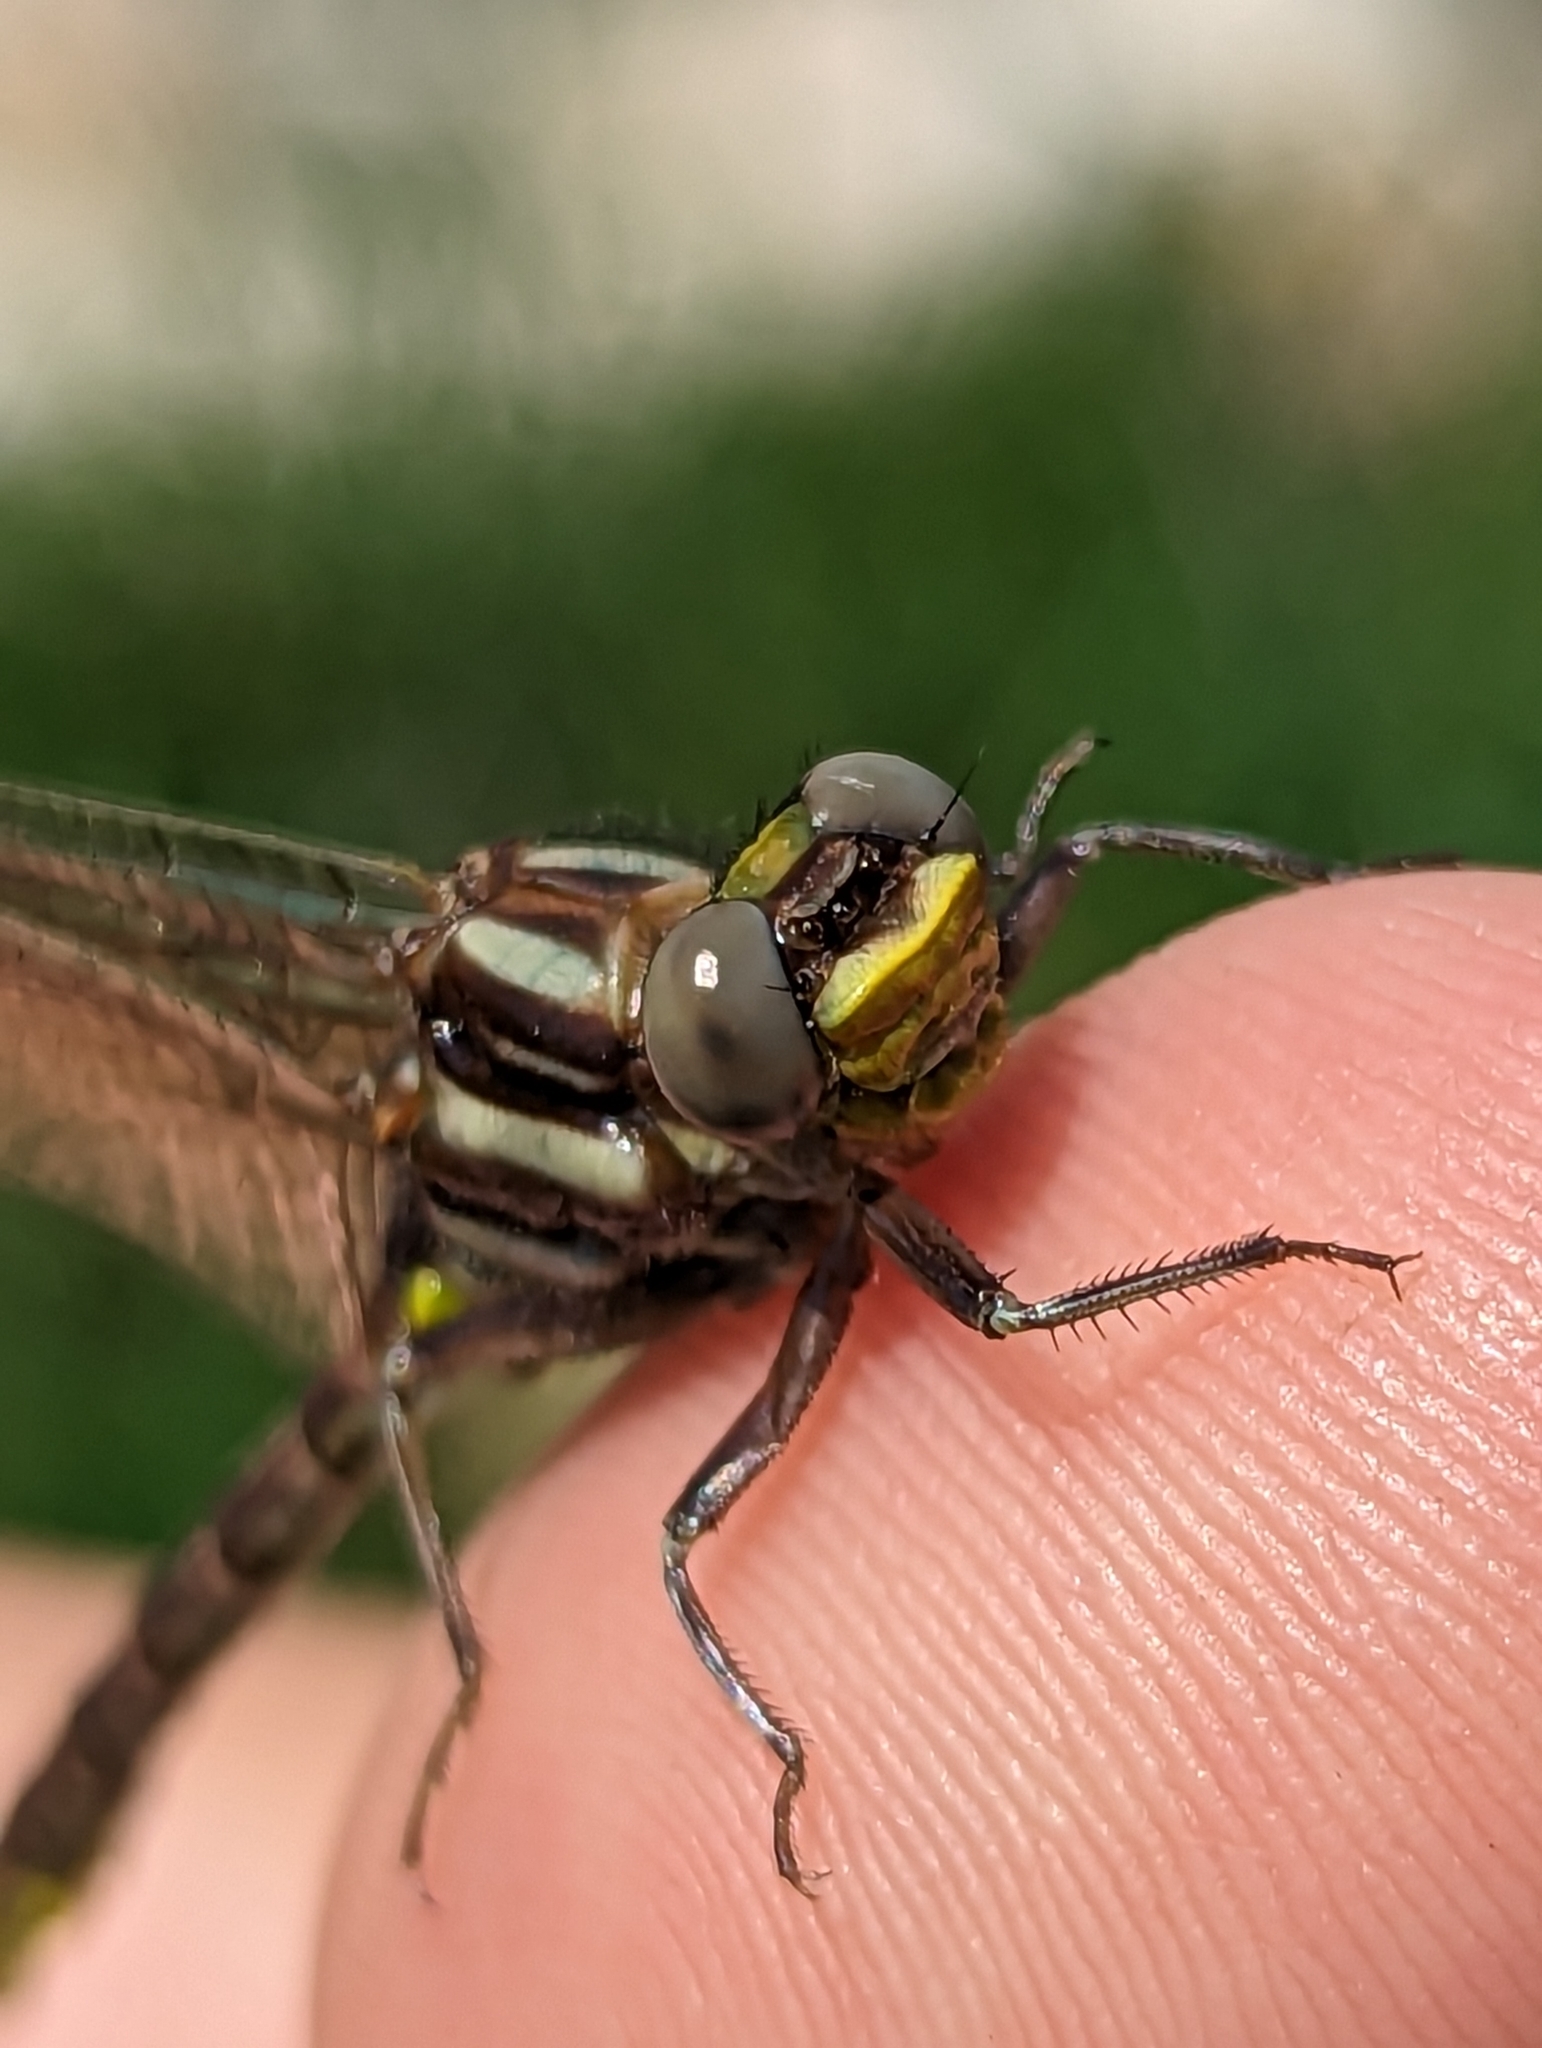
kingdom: Animalia
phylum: Arthropoda
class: Insecta
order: Odonata
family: Gomphidae
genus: Phanogomphus
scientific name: Phanogomphus exilis
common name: Lancet clubtail
